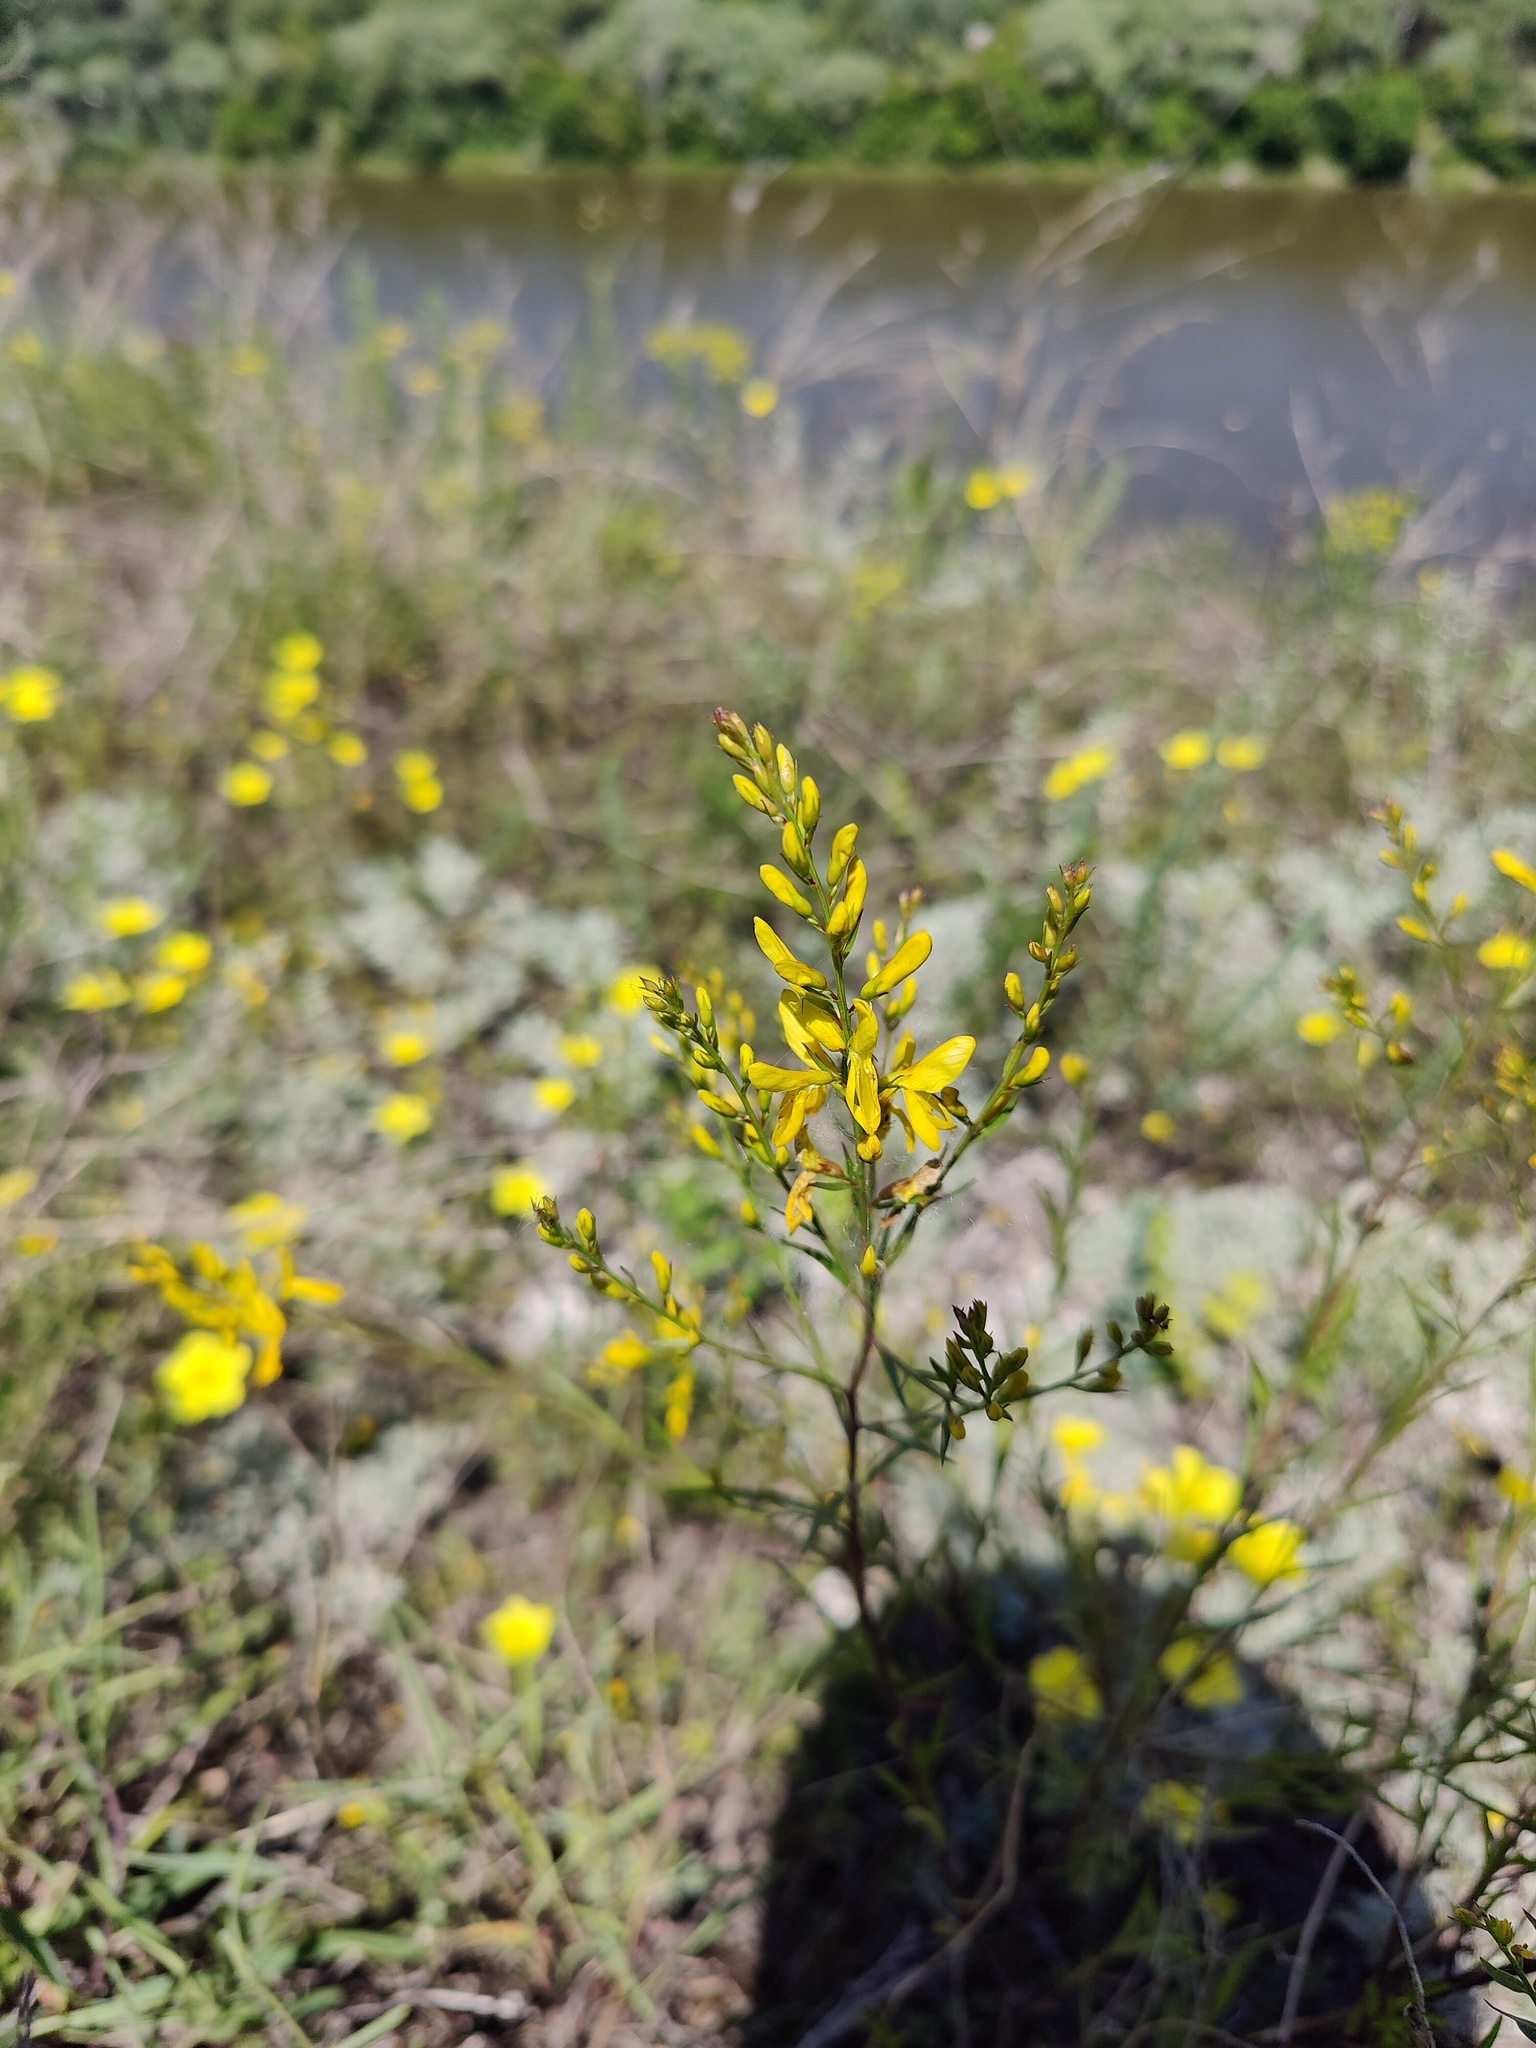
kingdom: Plantae
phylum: Tracheophyta
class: Magnoliopsida
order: Fabales
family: Fabaceae
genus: Genista
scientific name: Genista tinctoria
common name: Dyer's greenweed
